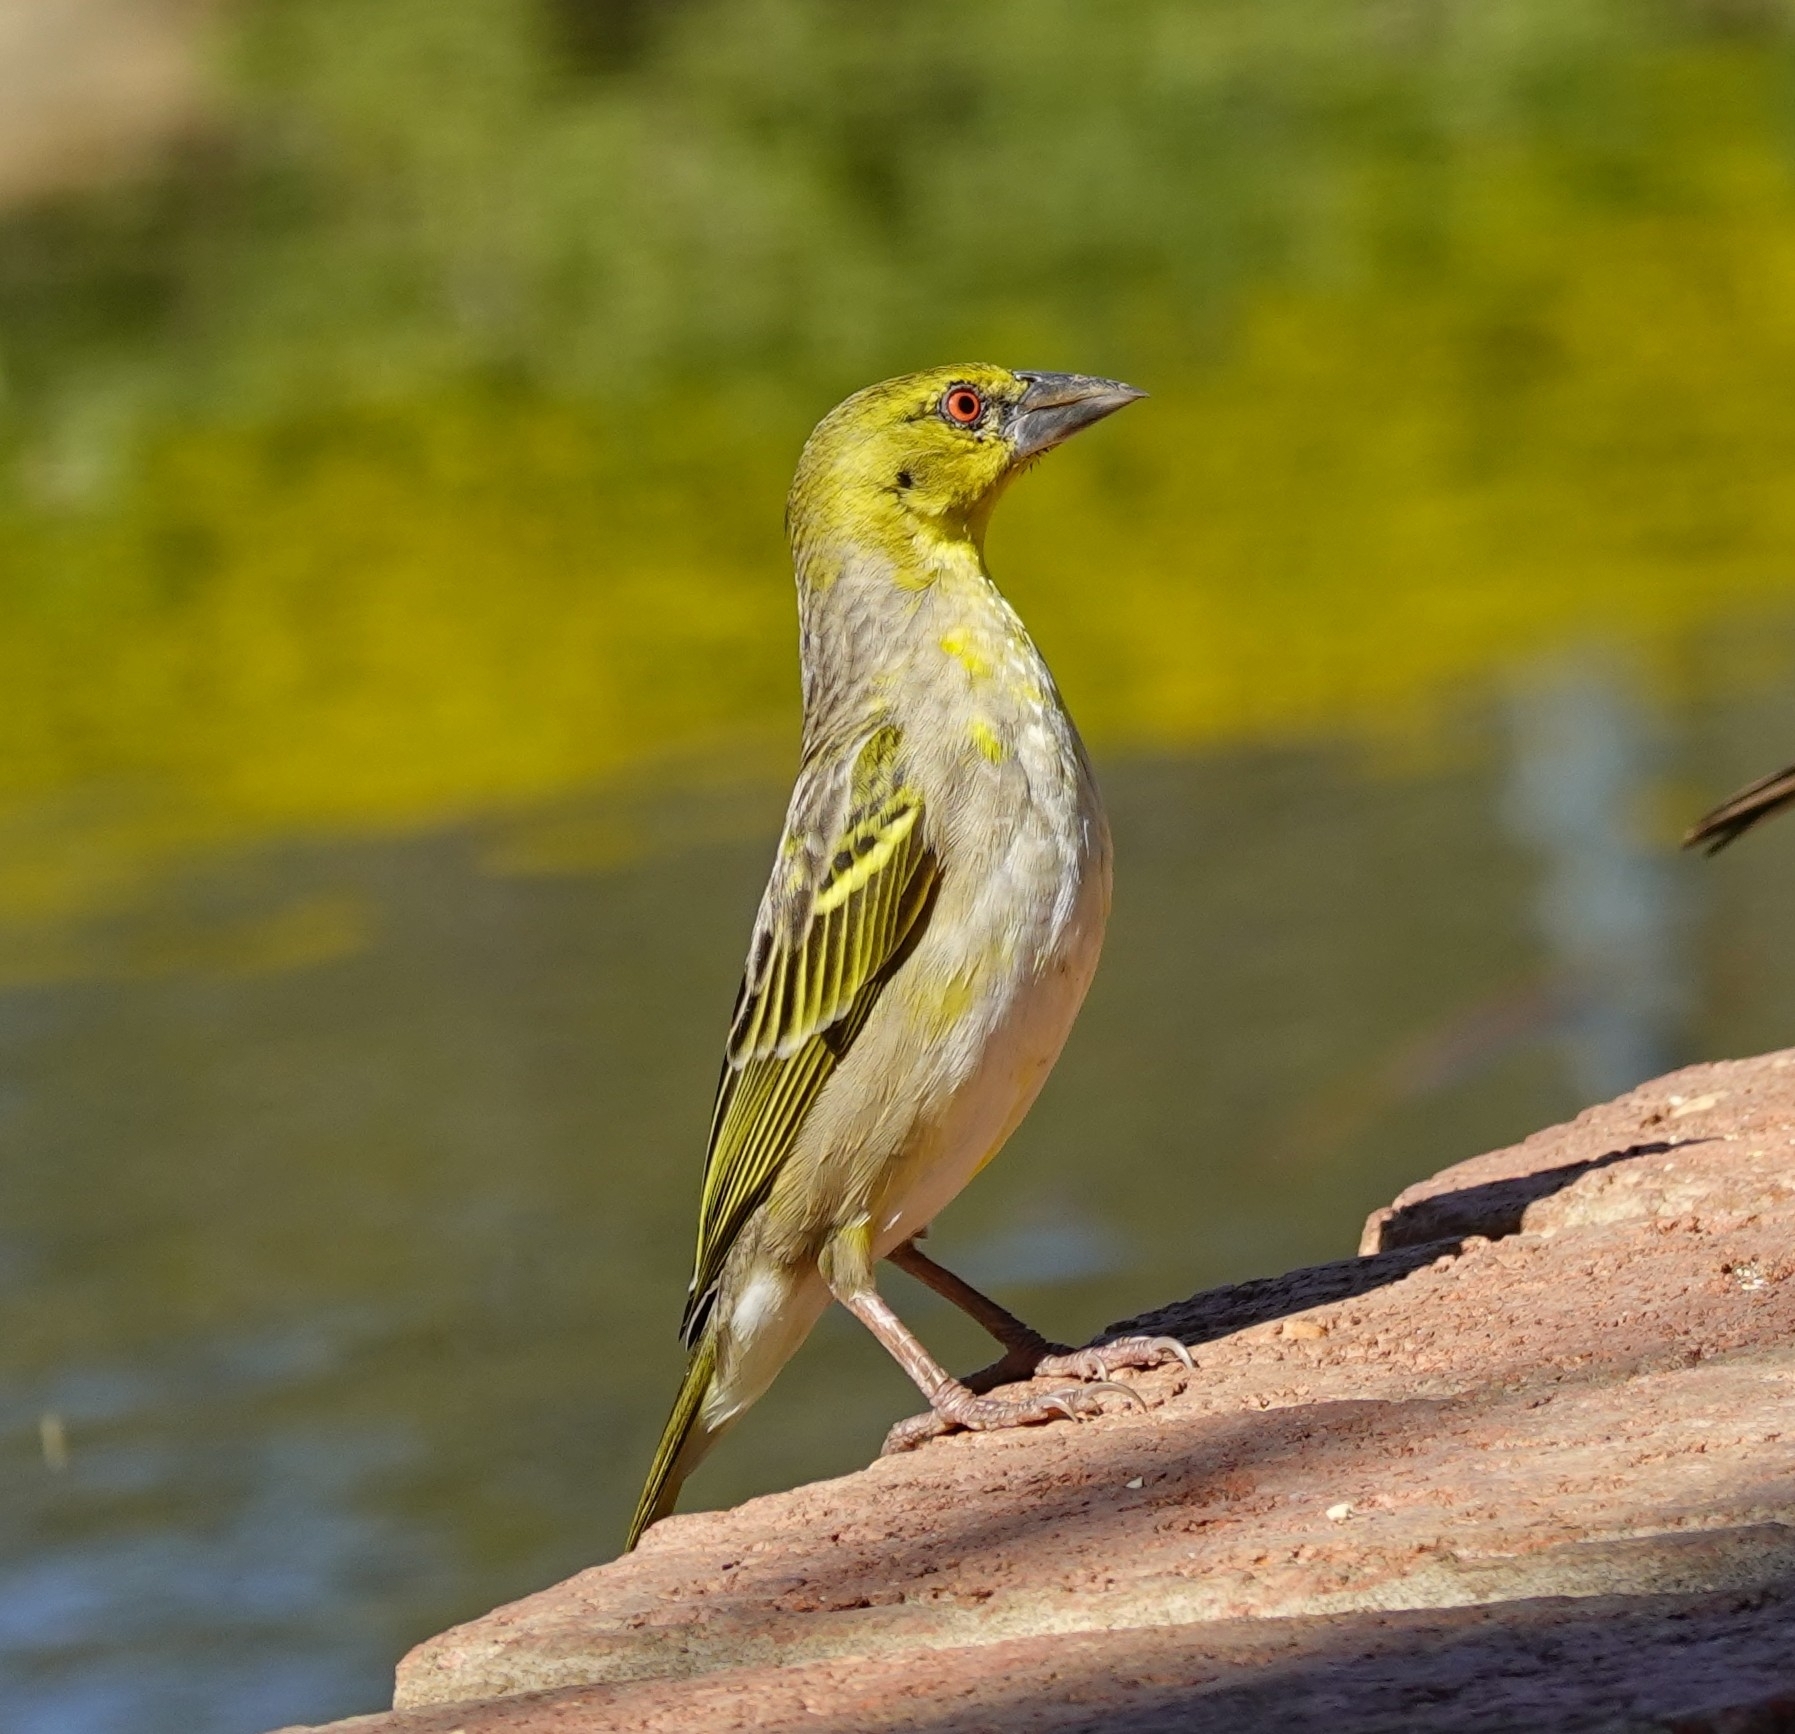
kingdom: Animalia
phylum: Chordata
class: Aves
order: Passeriformes
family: Ploceidae
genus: Ploceus
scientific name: Ploceus cucullatus
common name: Village weaver
